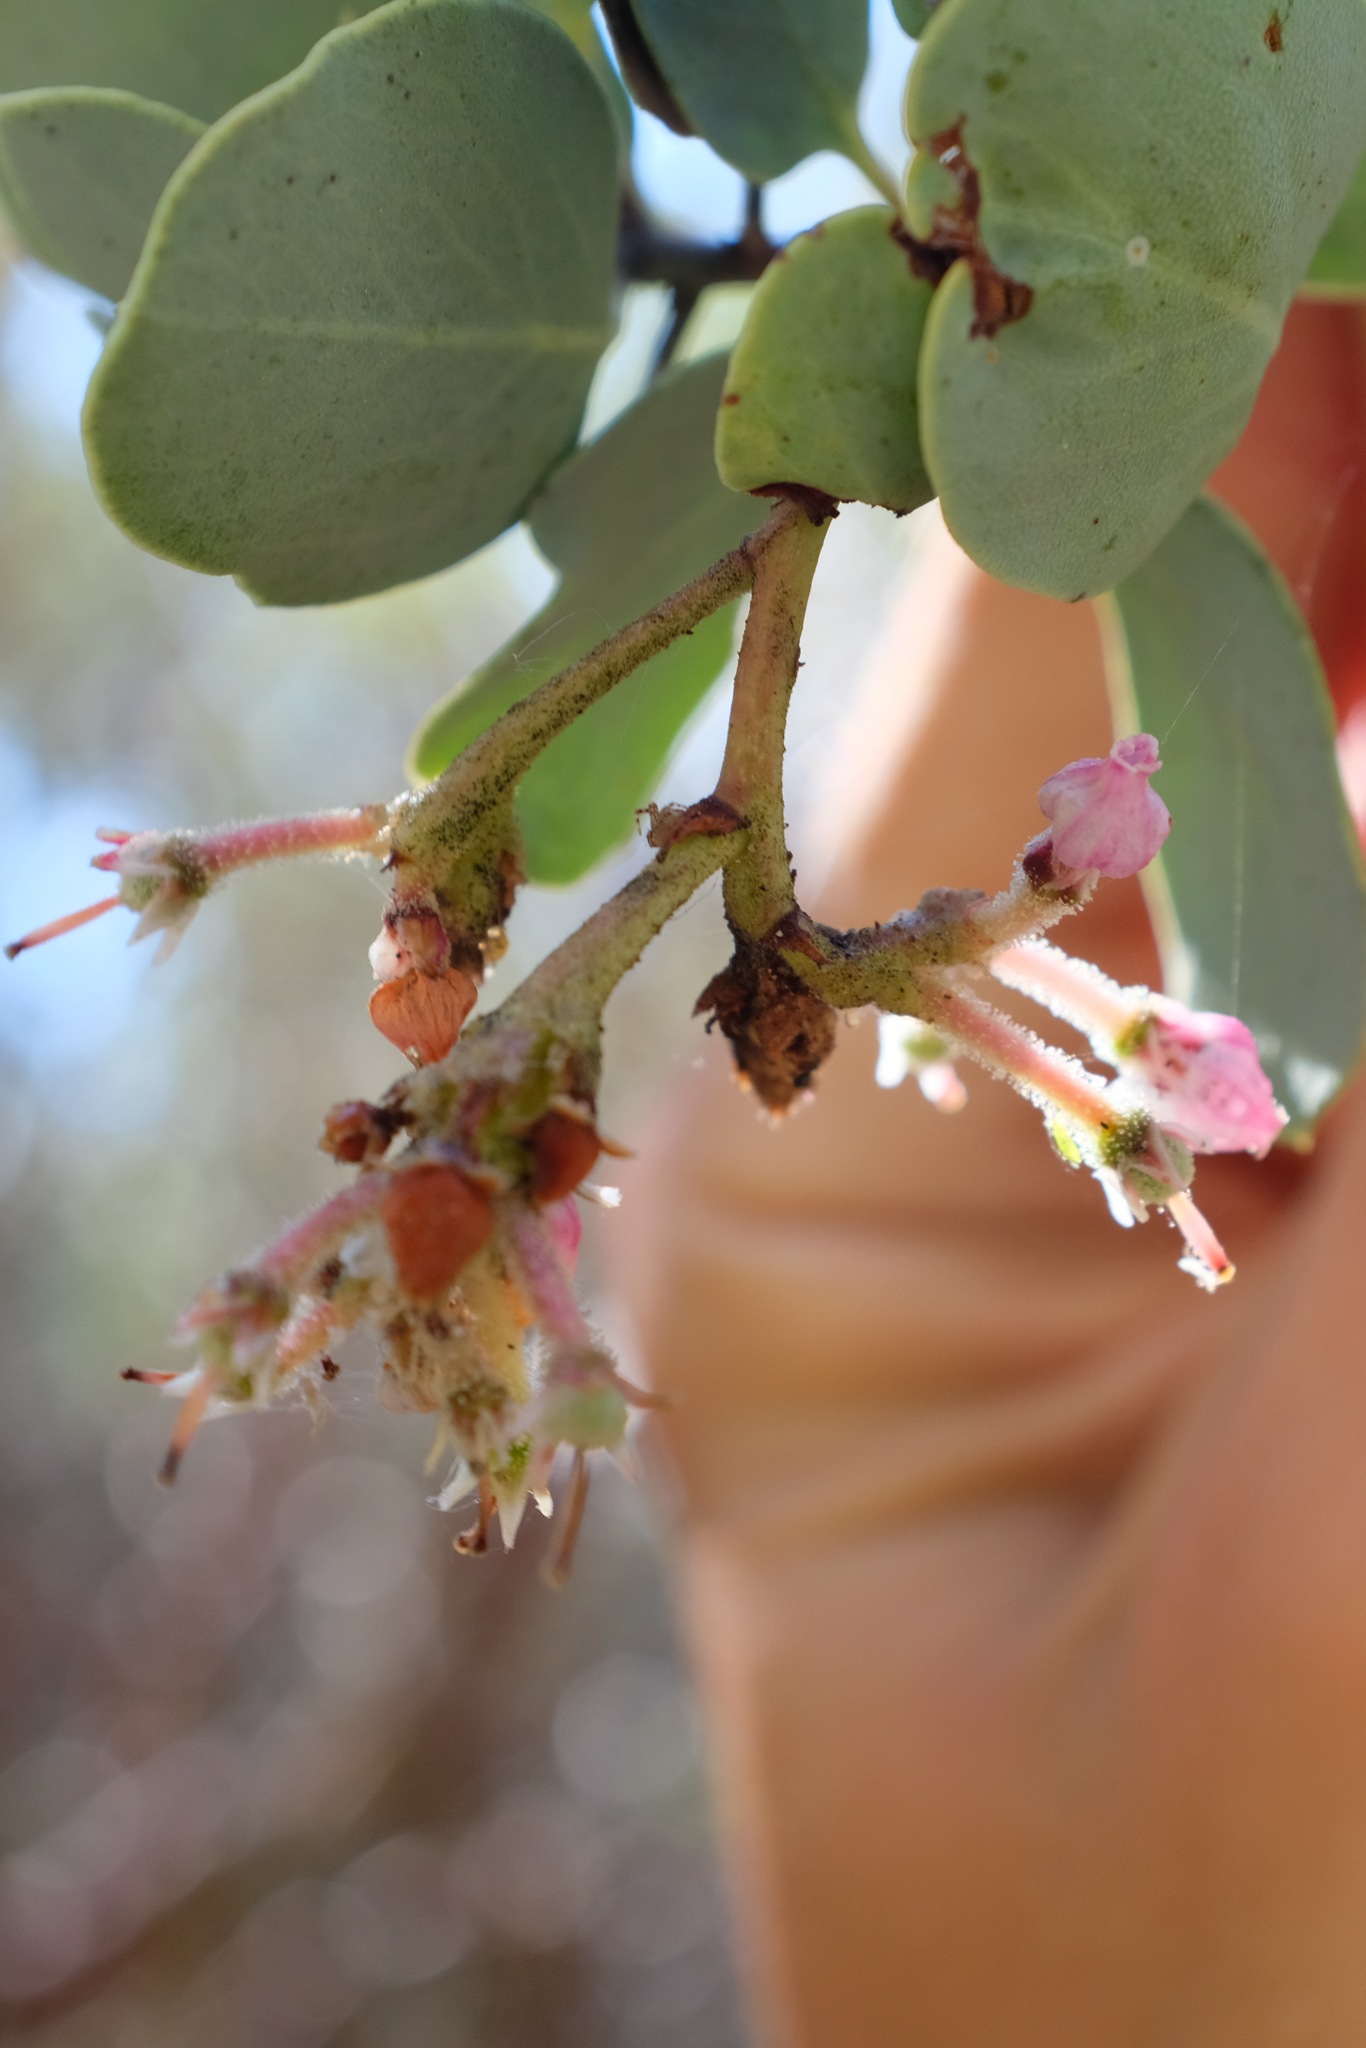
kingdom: Plantae
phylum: Tracheophyta
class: Magnoliopsida
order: Ericales
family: Ericaceae
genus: Arctostaphylos
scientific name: Arctostaphylos viscida
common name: White-leaf manzanita
